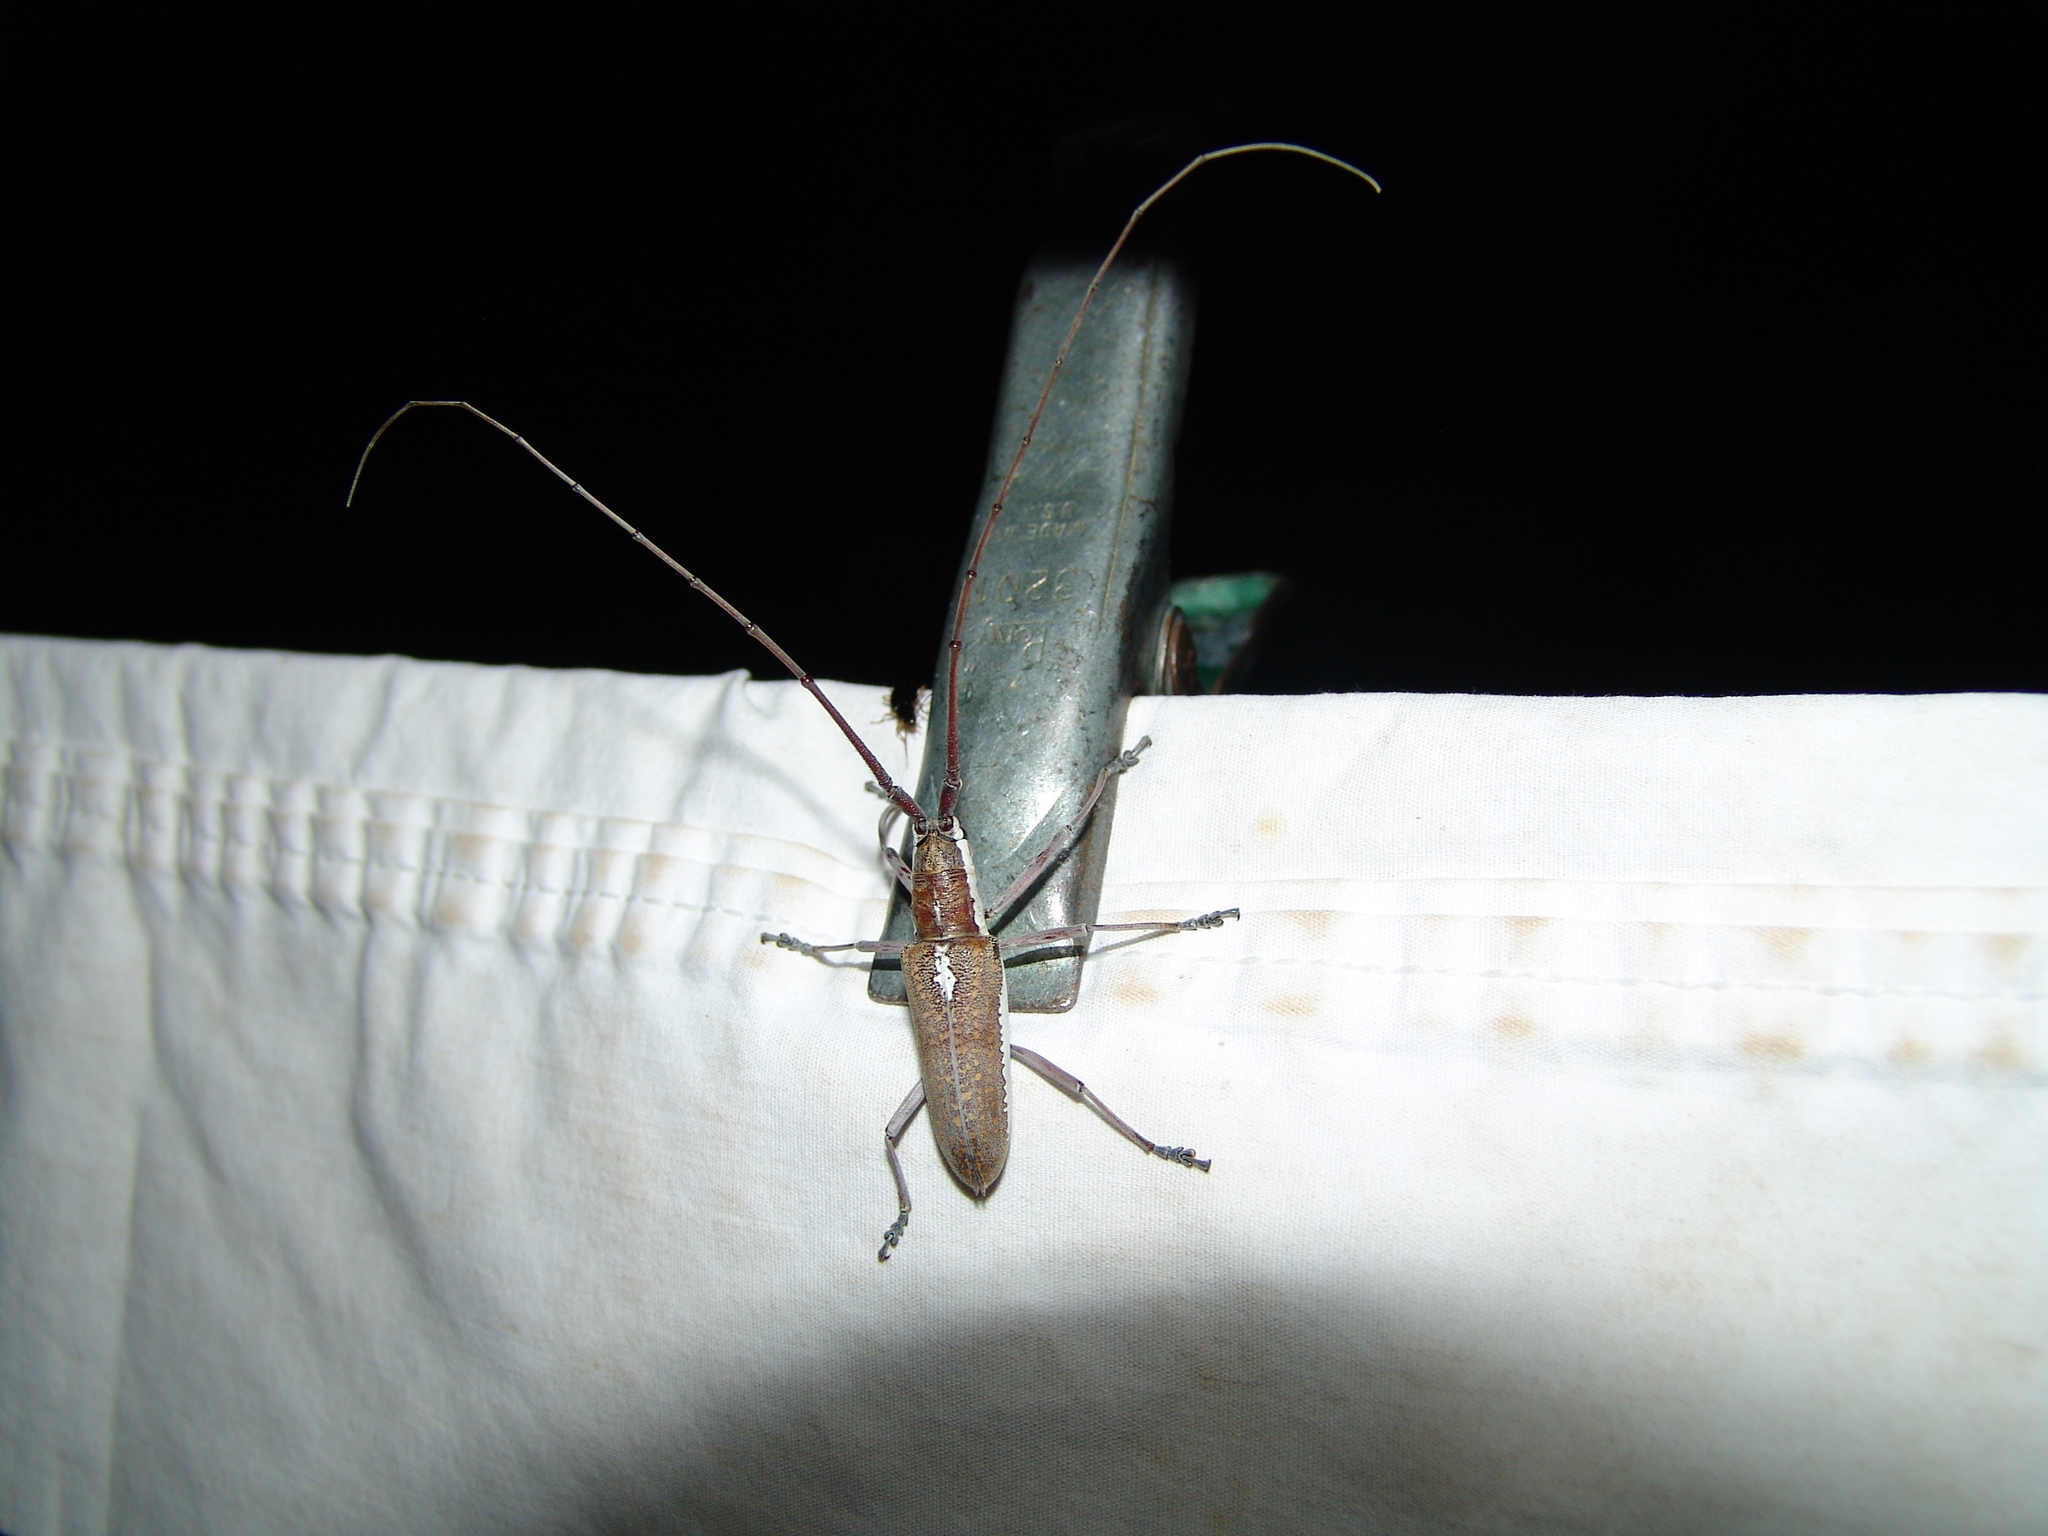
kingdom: Animalia
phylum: Arthropoda
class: Insecta
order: Coleoptera
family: Cerambycidae
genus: Neoptychodes
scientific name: Neoptychodes trilineatus
